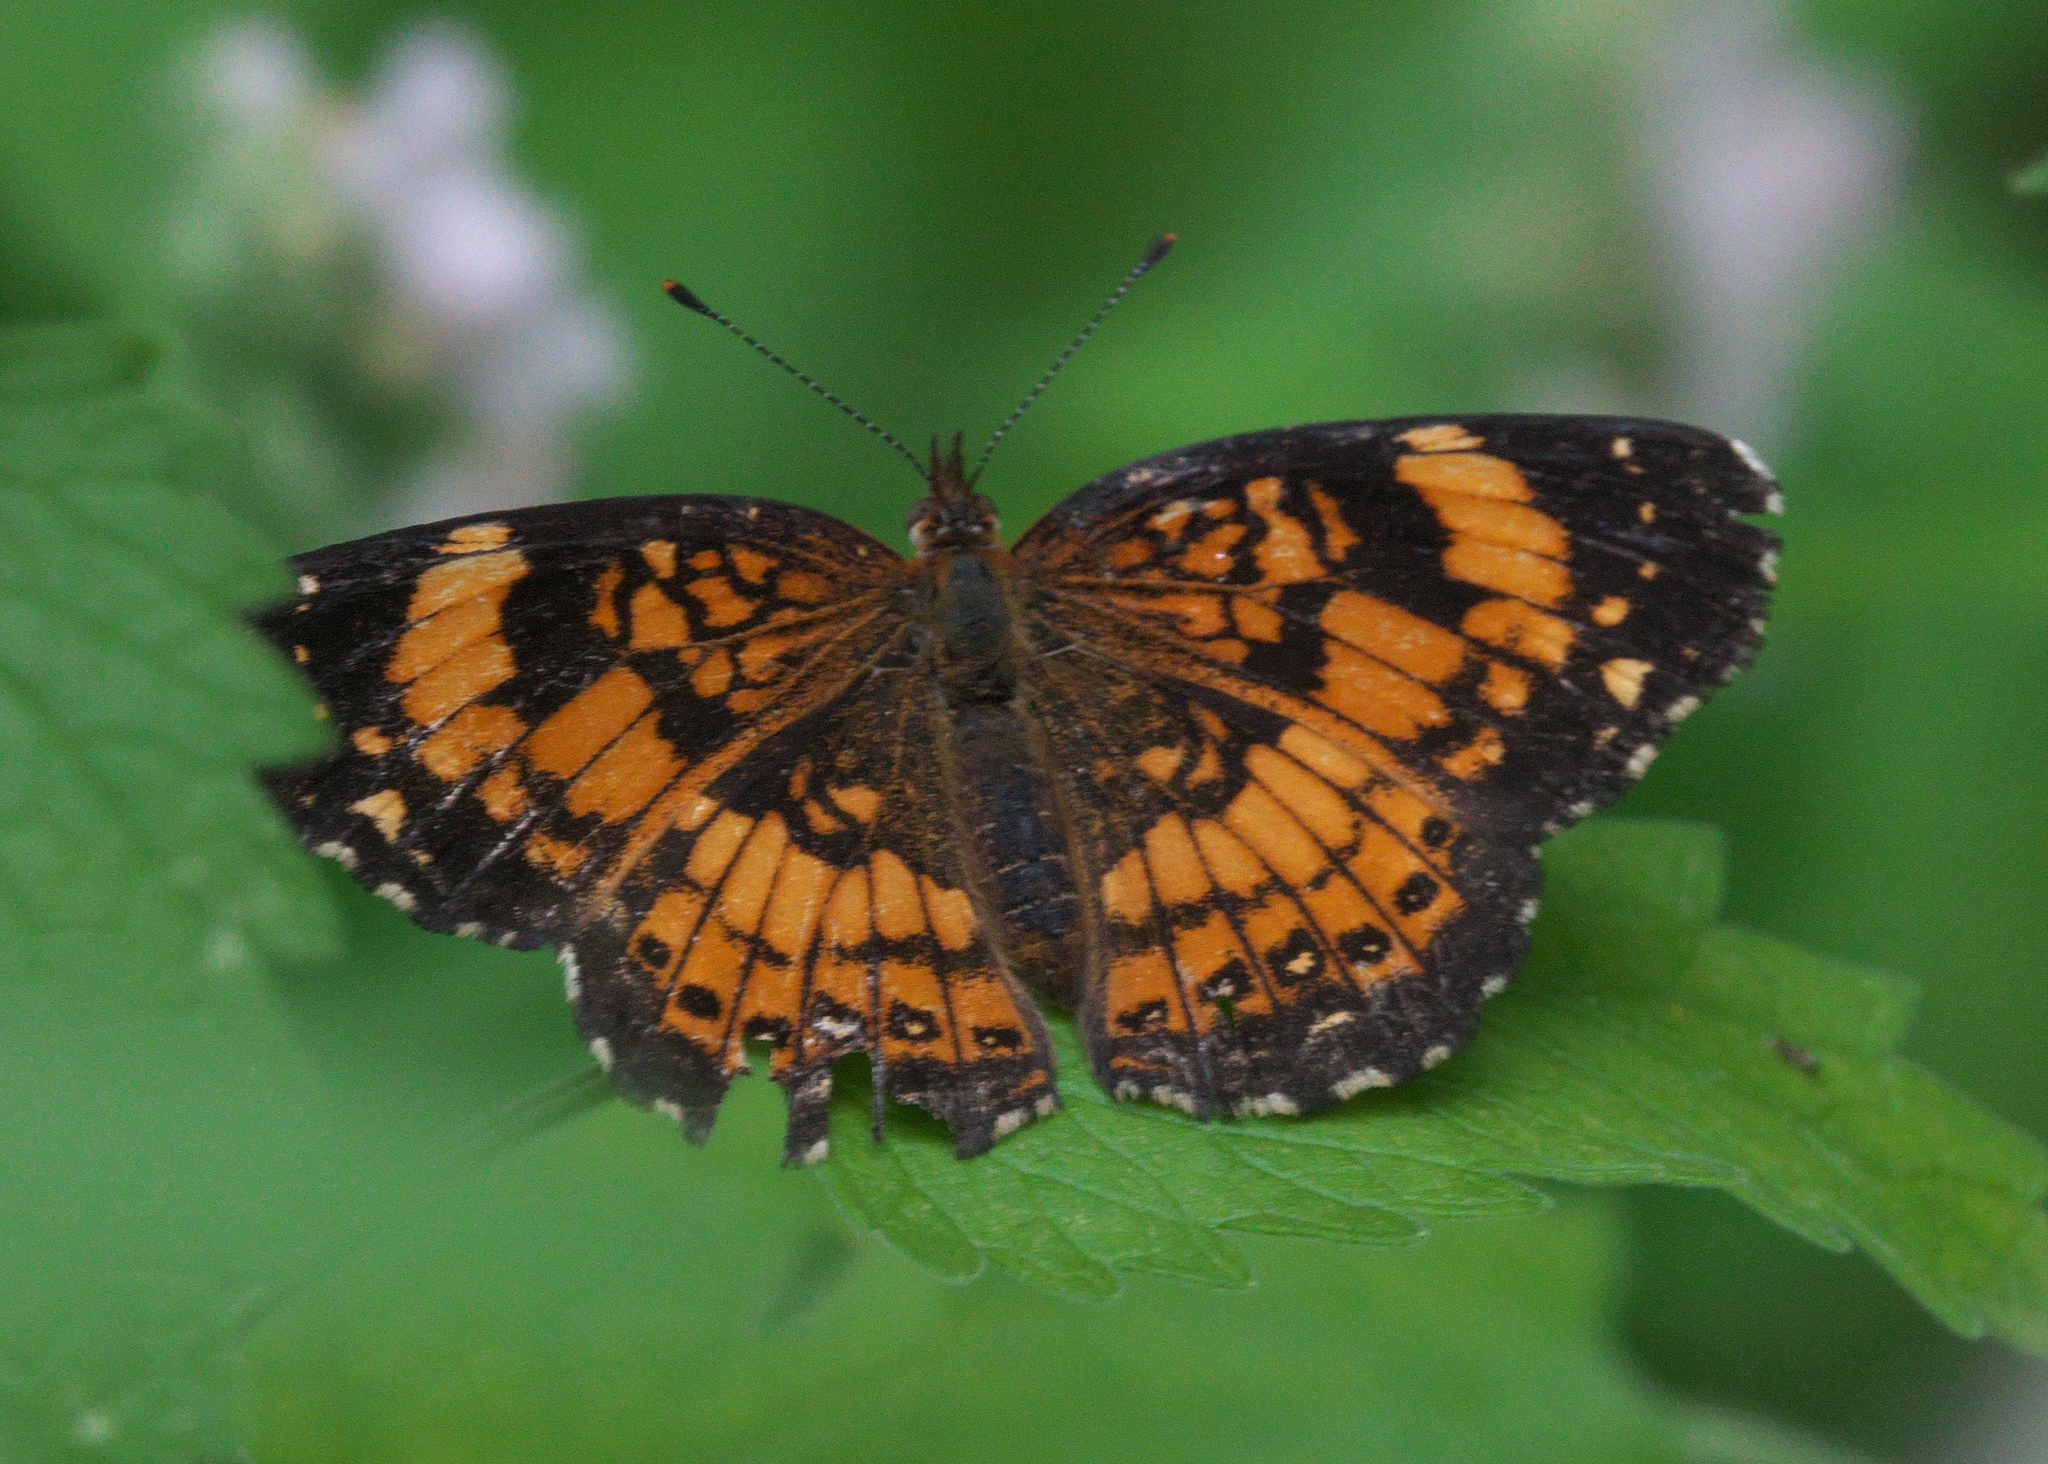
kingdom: Animalia
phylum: Arthropoda
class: Insecta
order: Lepidoptera
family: Nymphalidae
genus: Chlosyne
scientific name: Chlosyne nycteis
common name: Silvery checkerspot
